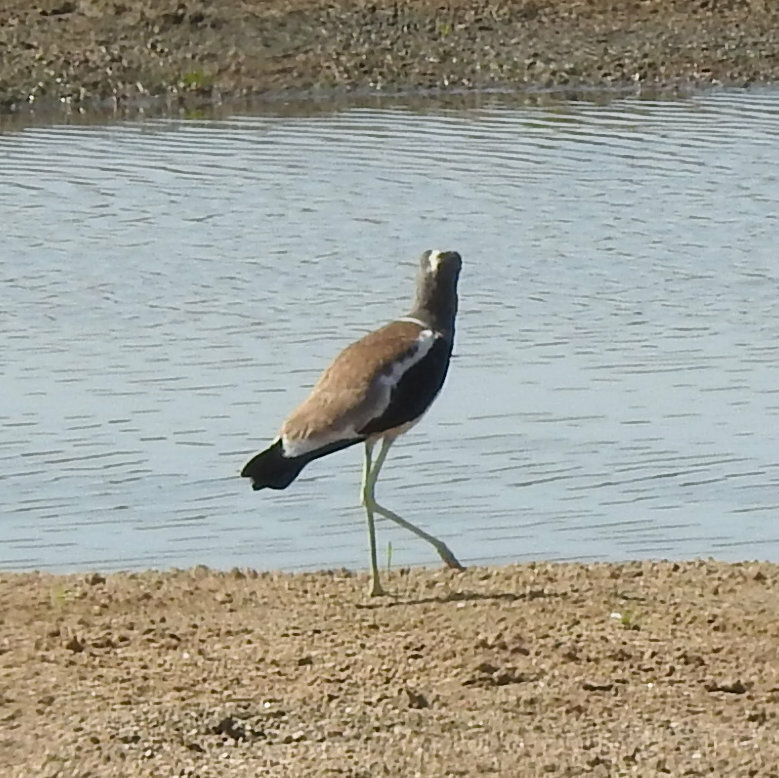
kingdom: Animalia
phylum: Chordata
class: Aves
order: Charadriiformes
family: Charadriidae
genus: Vanellus
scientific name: Vanellus albiceps
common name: White-crowned lapwing
